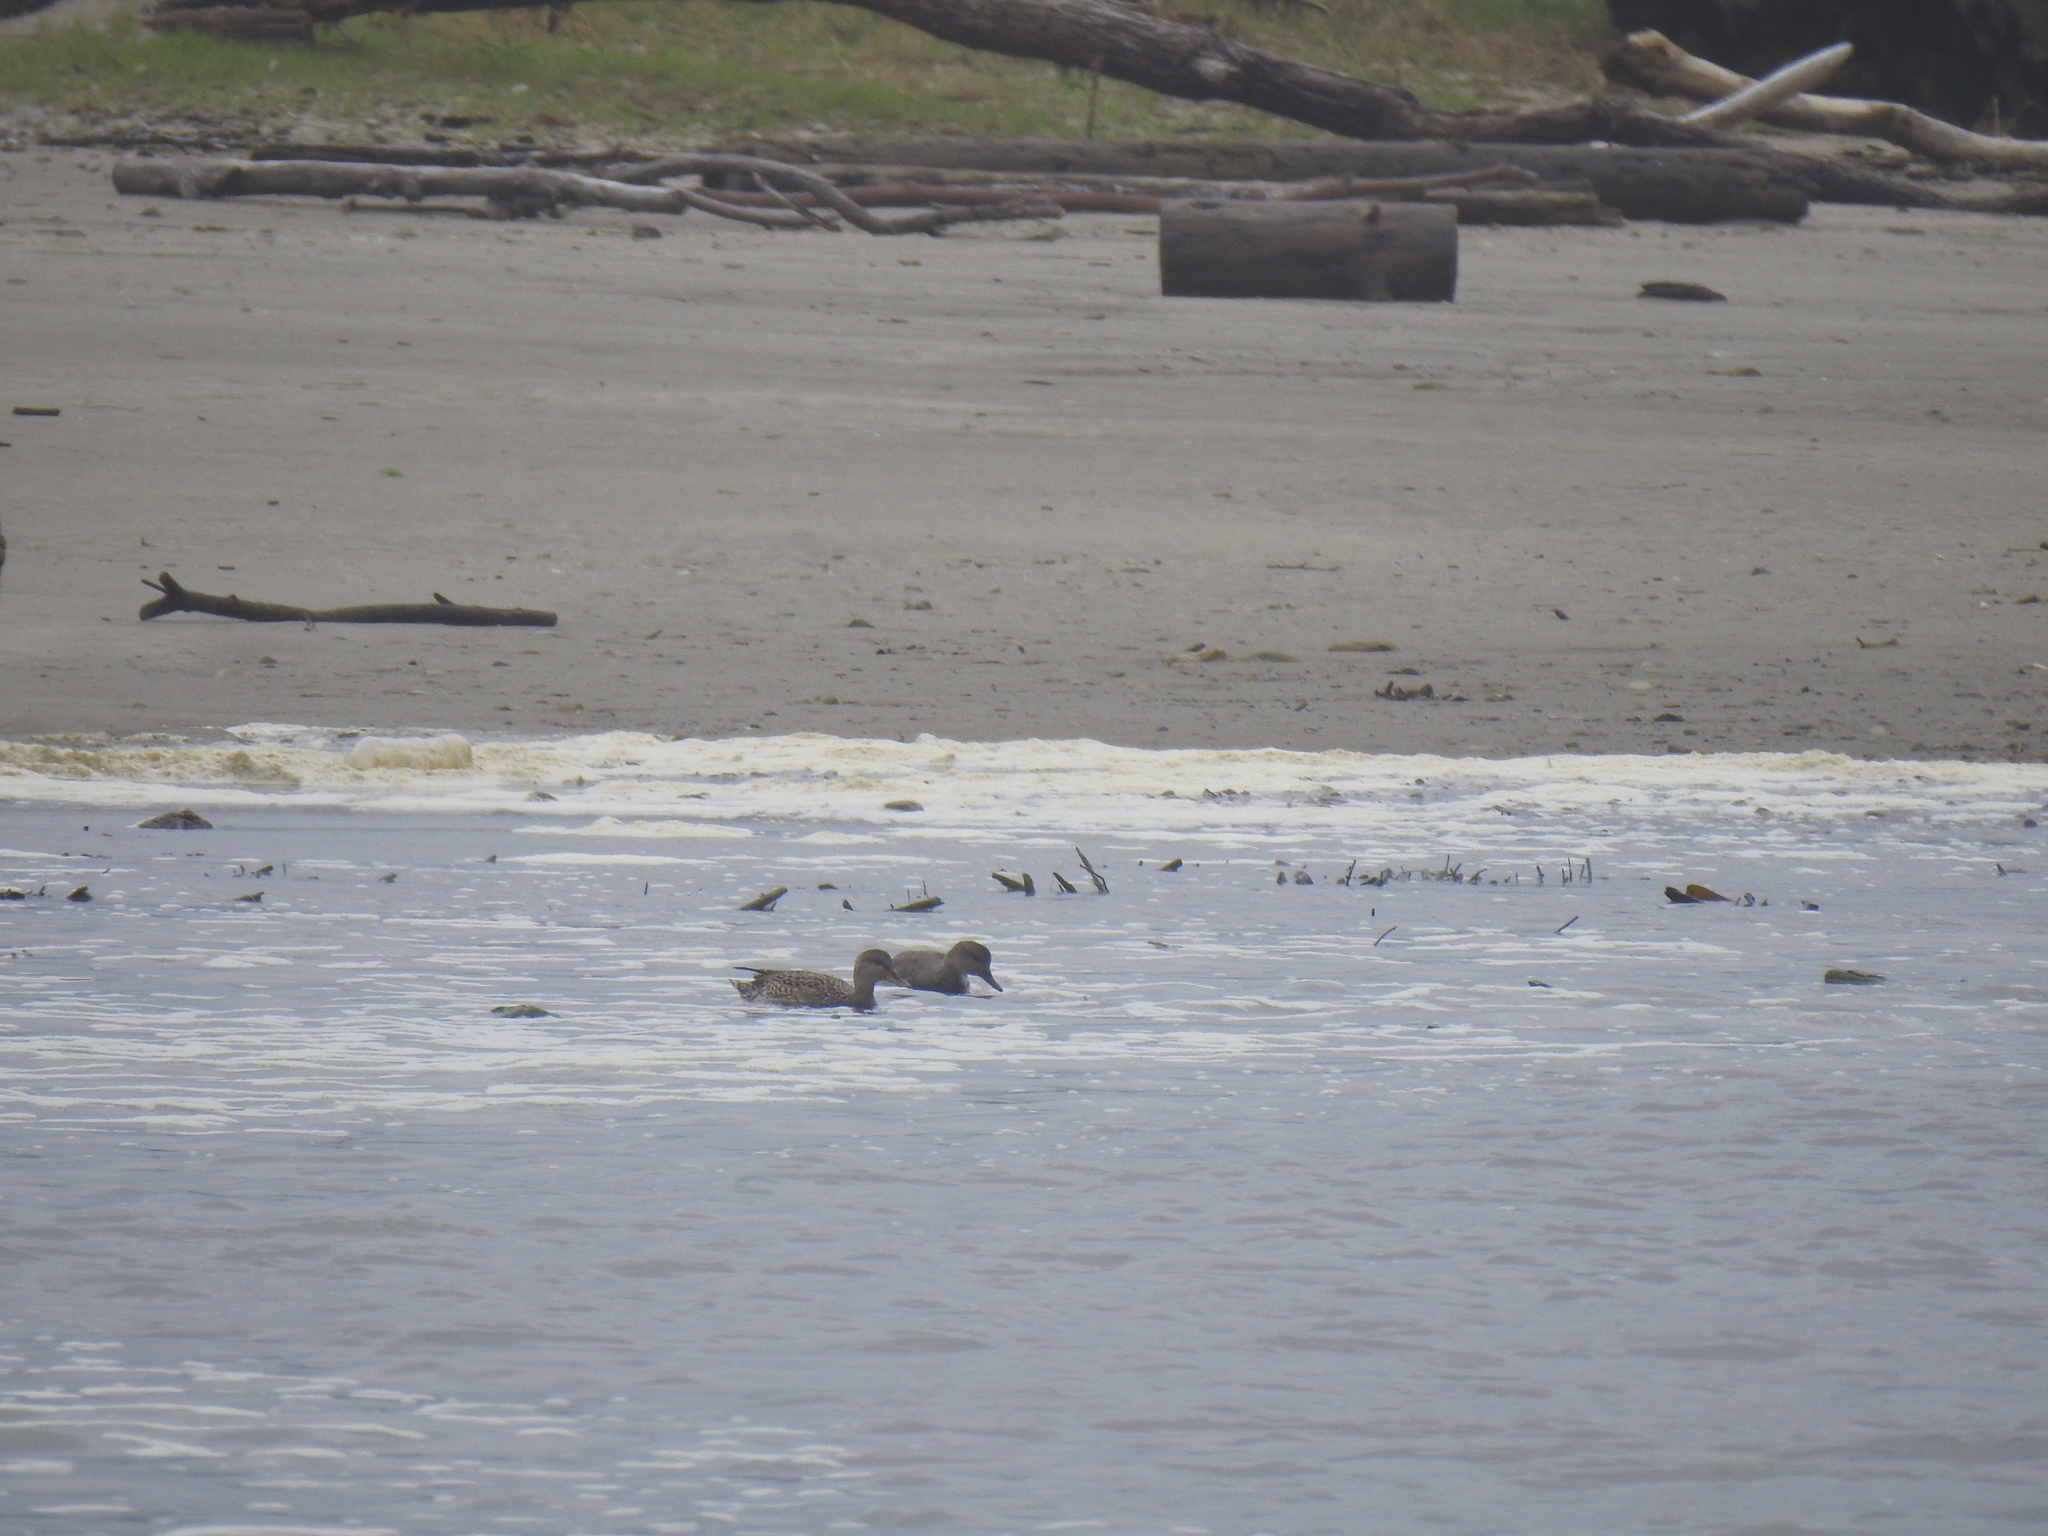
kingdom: Animalia
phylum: Chordata
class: Aves
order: Anseriformes
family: Anatidae
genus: Mareca
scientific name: Mareca strepera
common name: Gadwall
